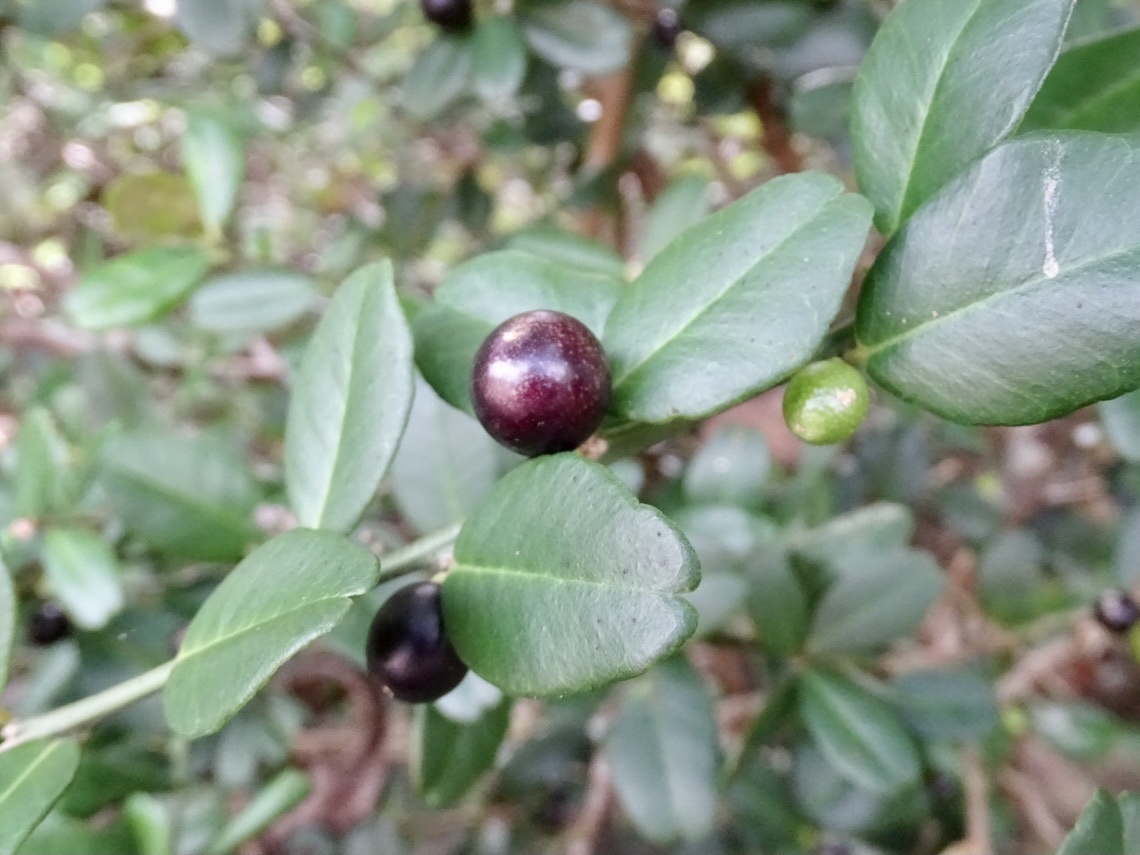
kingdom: Plantae
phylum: Tracheophyta
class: Magnoliopsida
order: Sapindales
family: Rutaceae
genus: Atalantia
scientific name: Atalantia buxifolia
